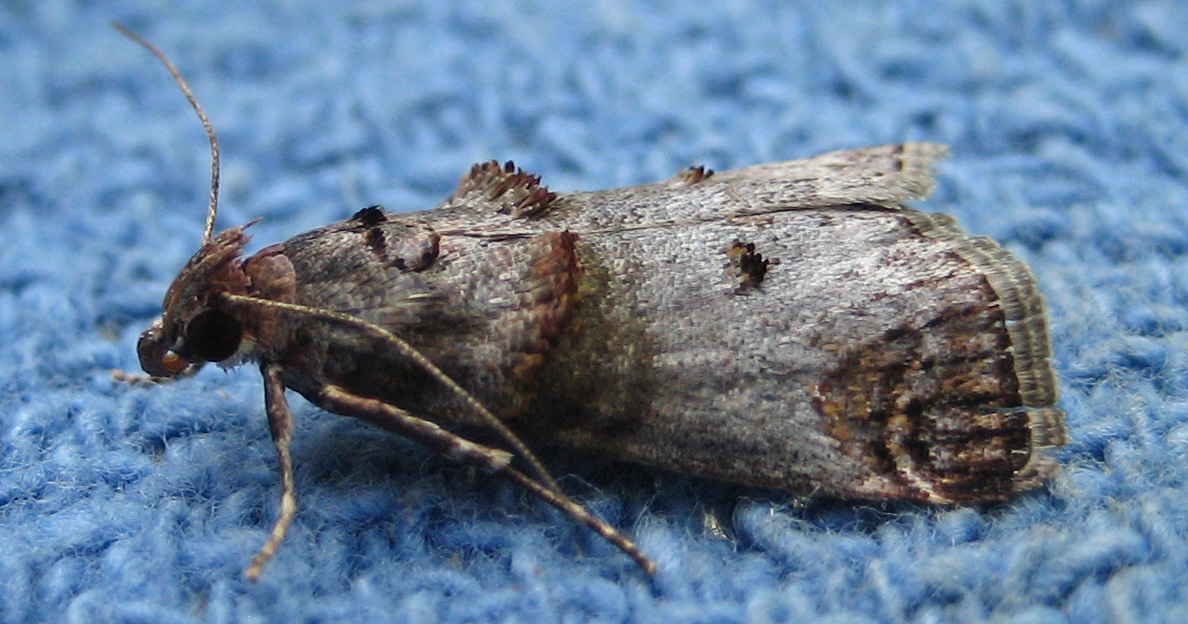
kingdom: Animalia
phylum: Arthropoda
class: Insecta
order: Lepidoptera
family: Pyralidae
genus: Oneida
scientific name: Oneida lunulalis
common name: Orange-tufted oneida moth
